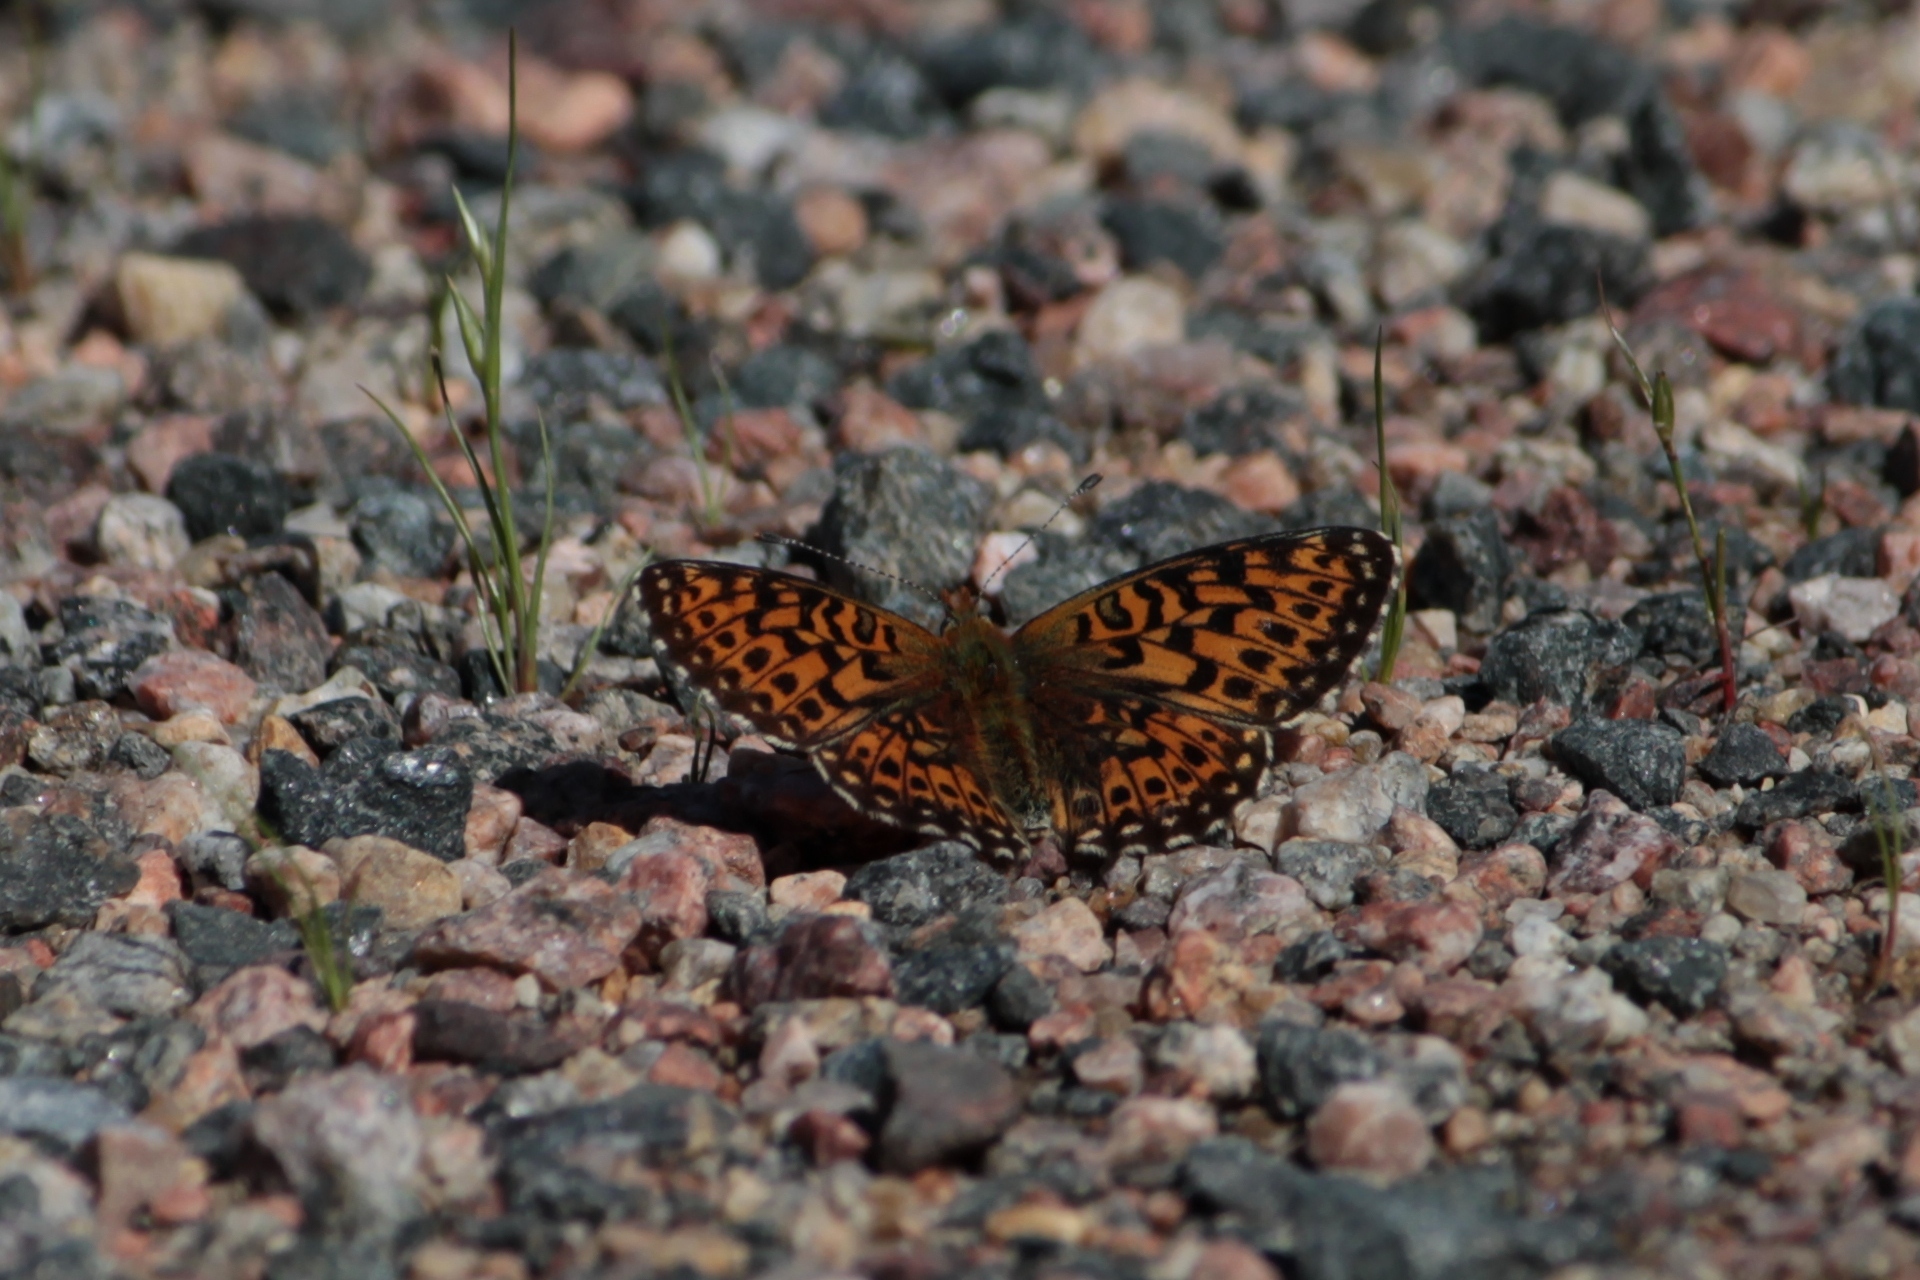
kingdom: Animalia
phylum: Arthropoda
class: Insecta
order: Lepidoptera
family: Nymphalidae
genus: Clossiana
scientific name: Clossiana euphrosyne
